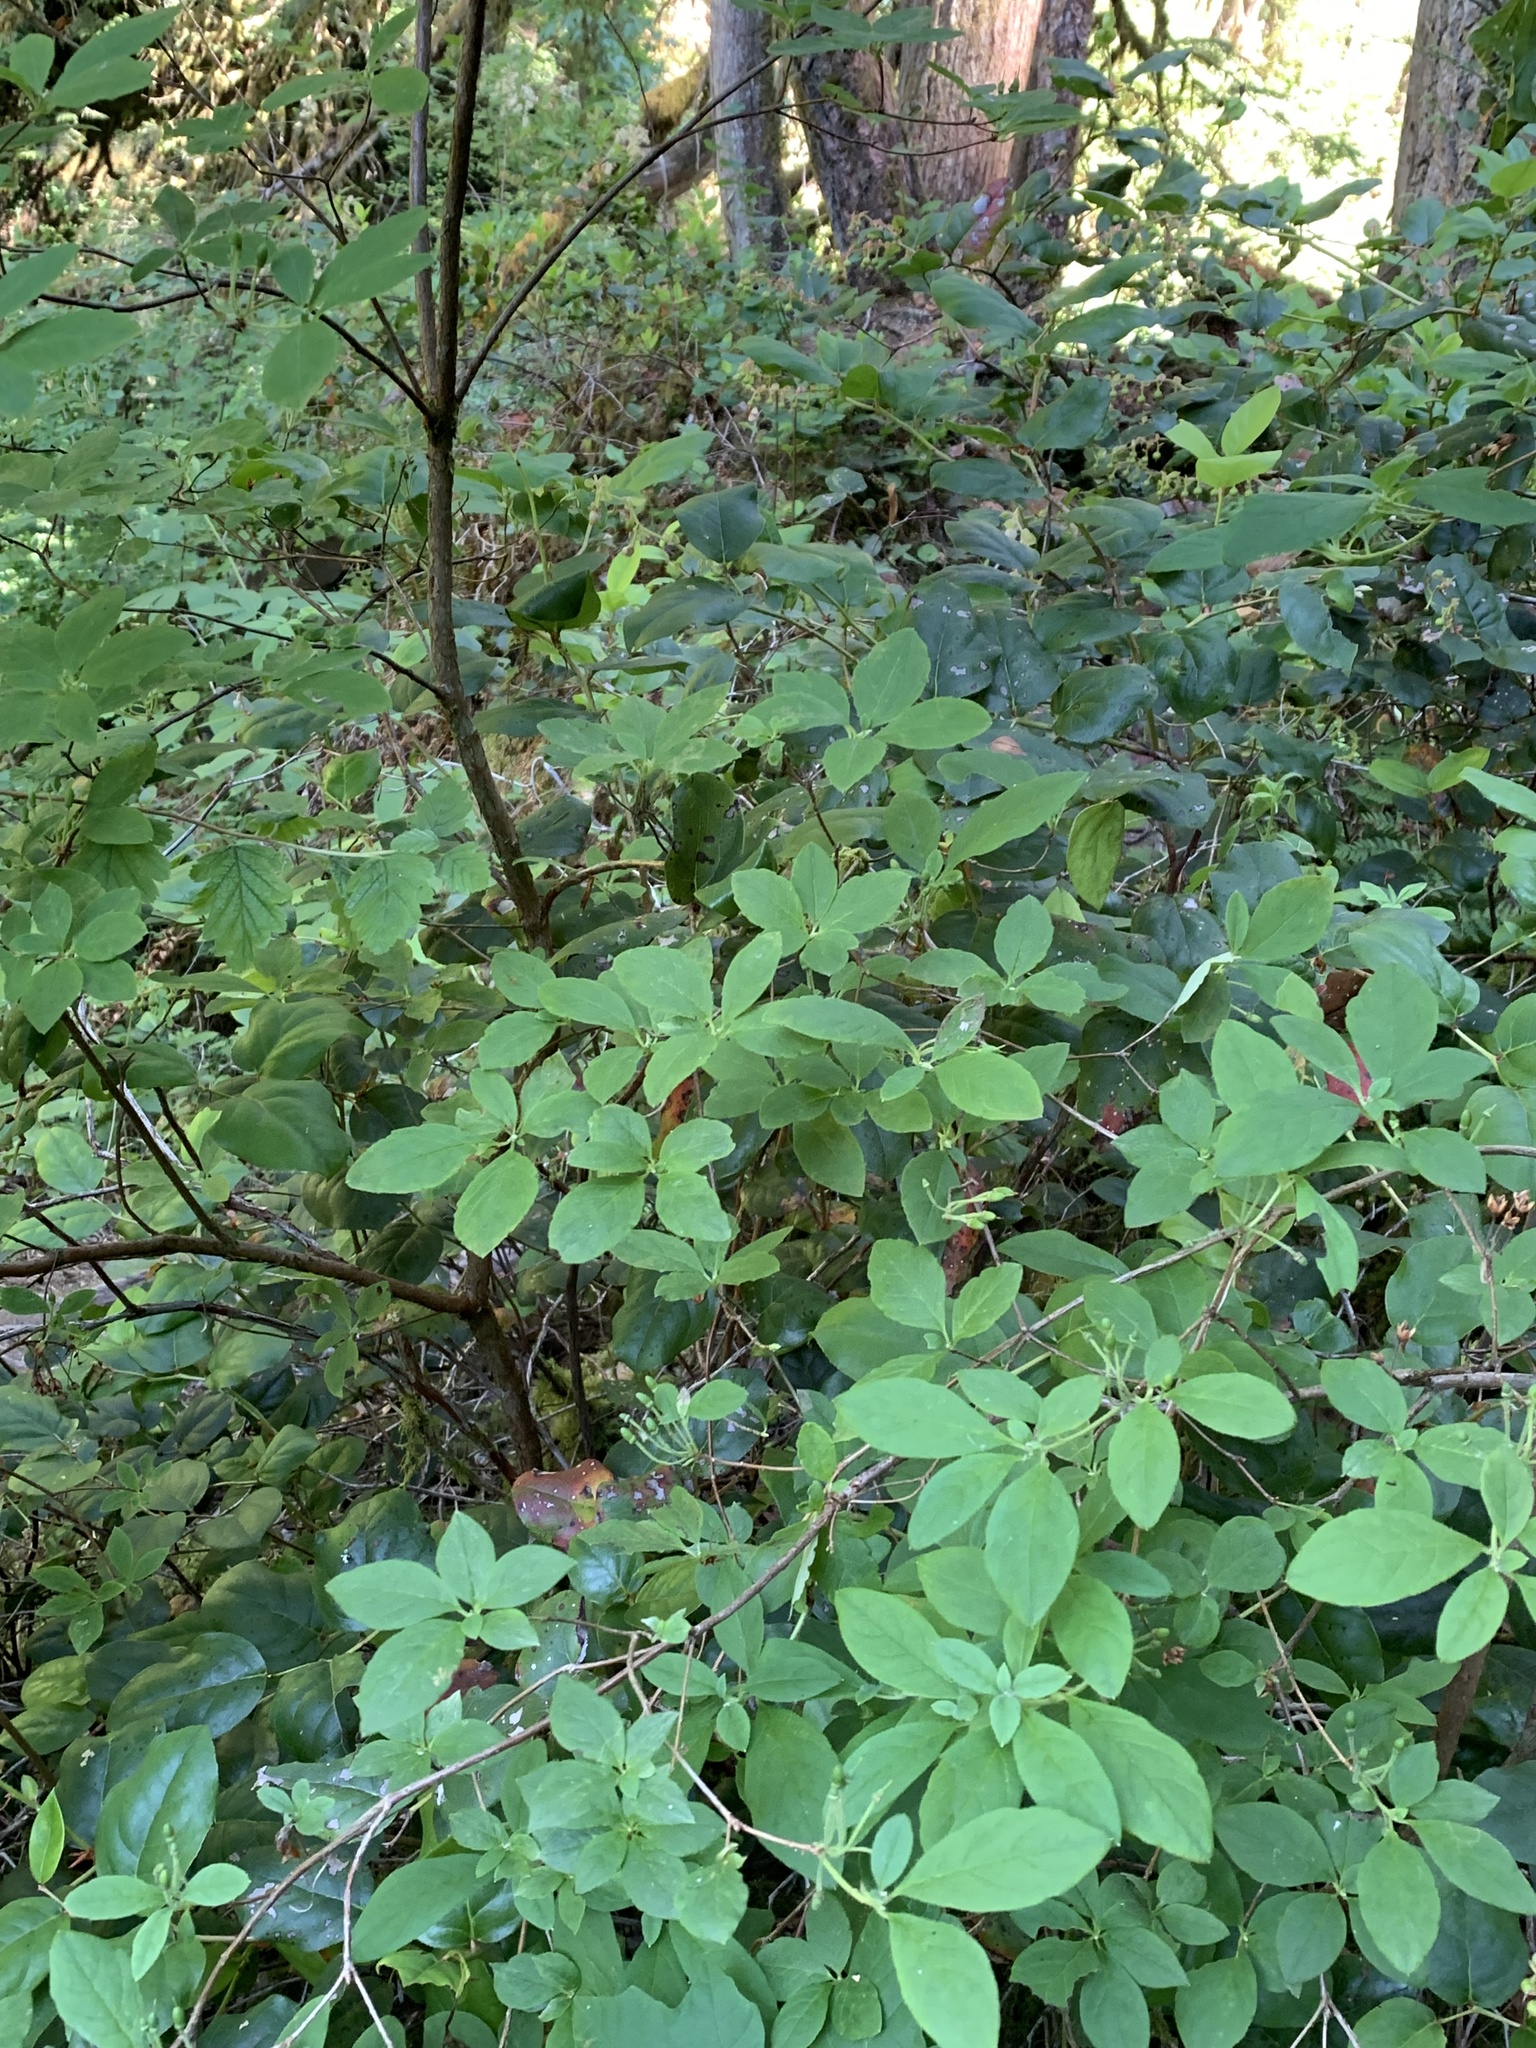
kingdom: Plantae
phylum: Tracheophyta
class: Magnoliopsida
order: Ericales
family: Ericaceae
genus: Rhododendron
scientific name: Rhododendron menziesii
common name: Pacific menziesia
